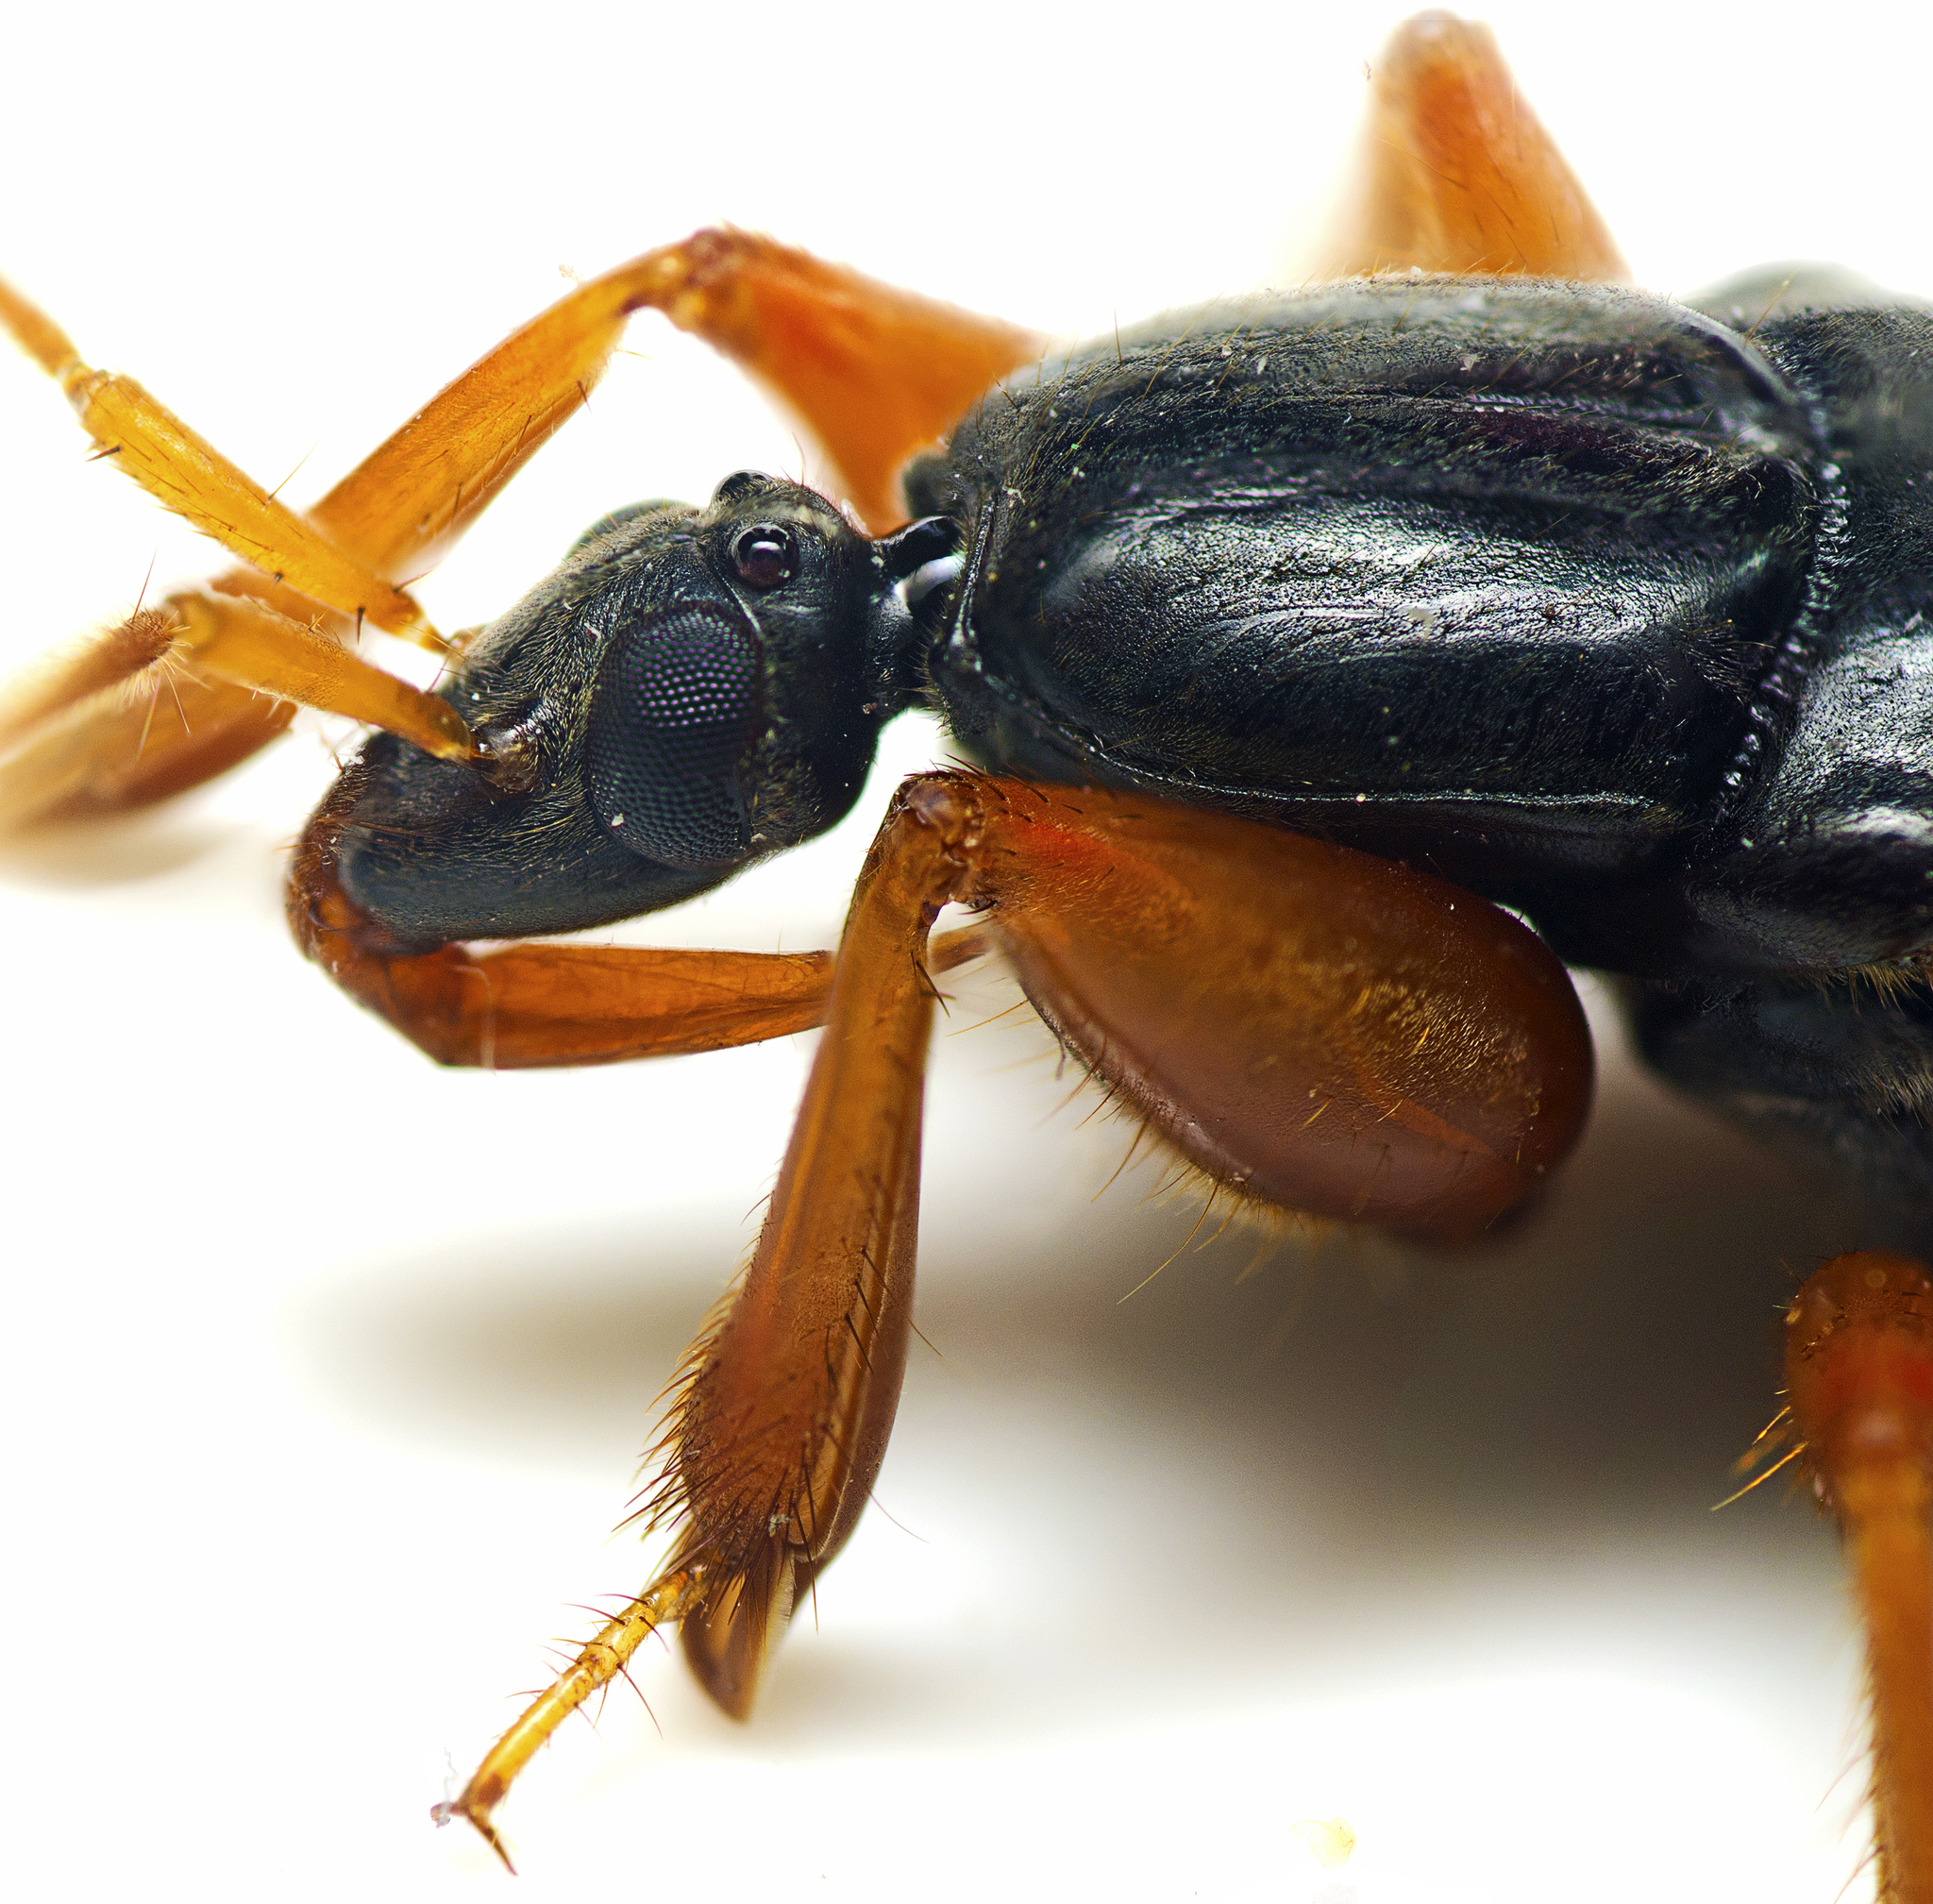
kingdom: Animalia
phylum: Arthropoda
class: Insecta
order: Hemiptera
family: Reduviidae
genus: Ectomocoris
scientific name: Ectomocoris truculentus
